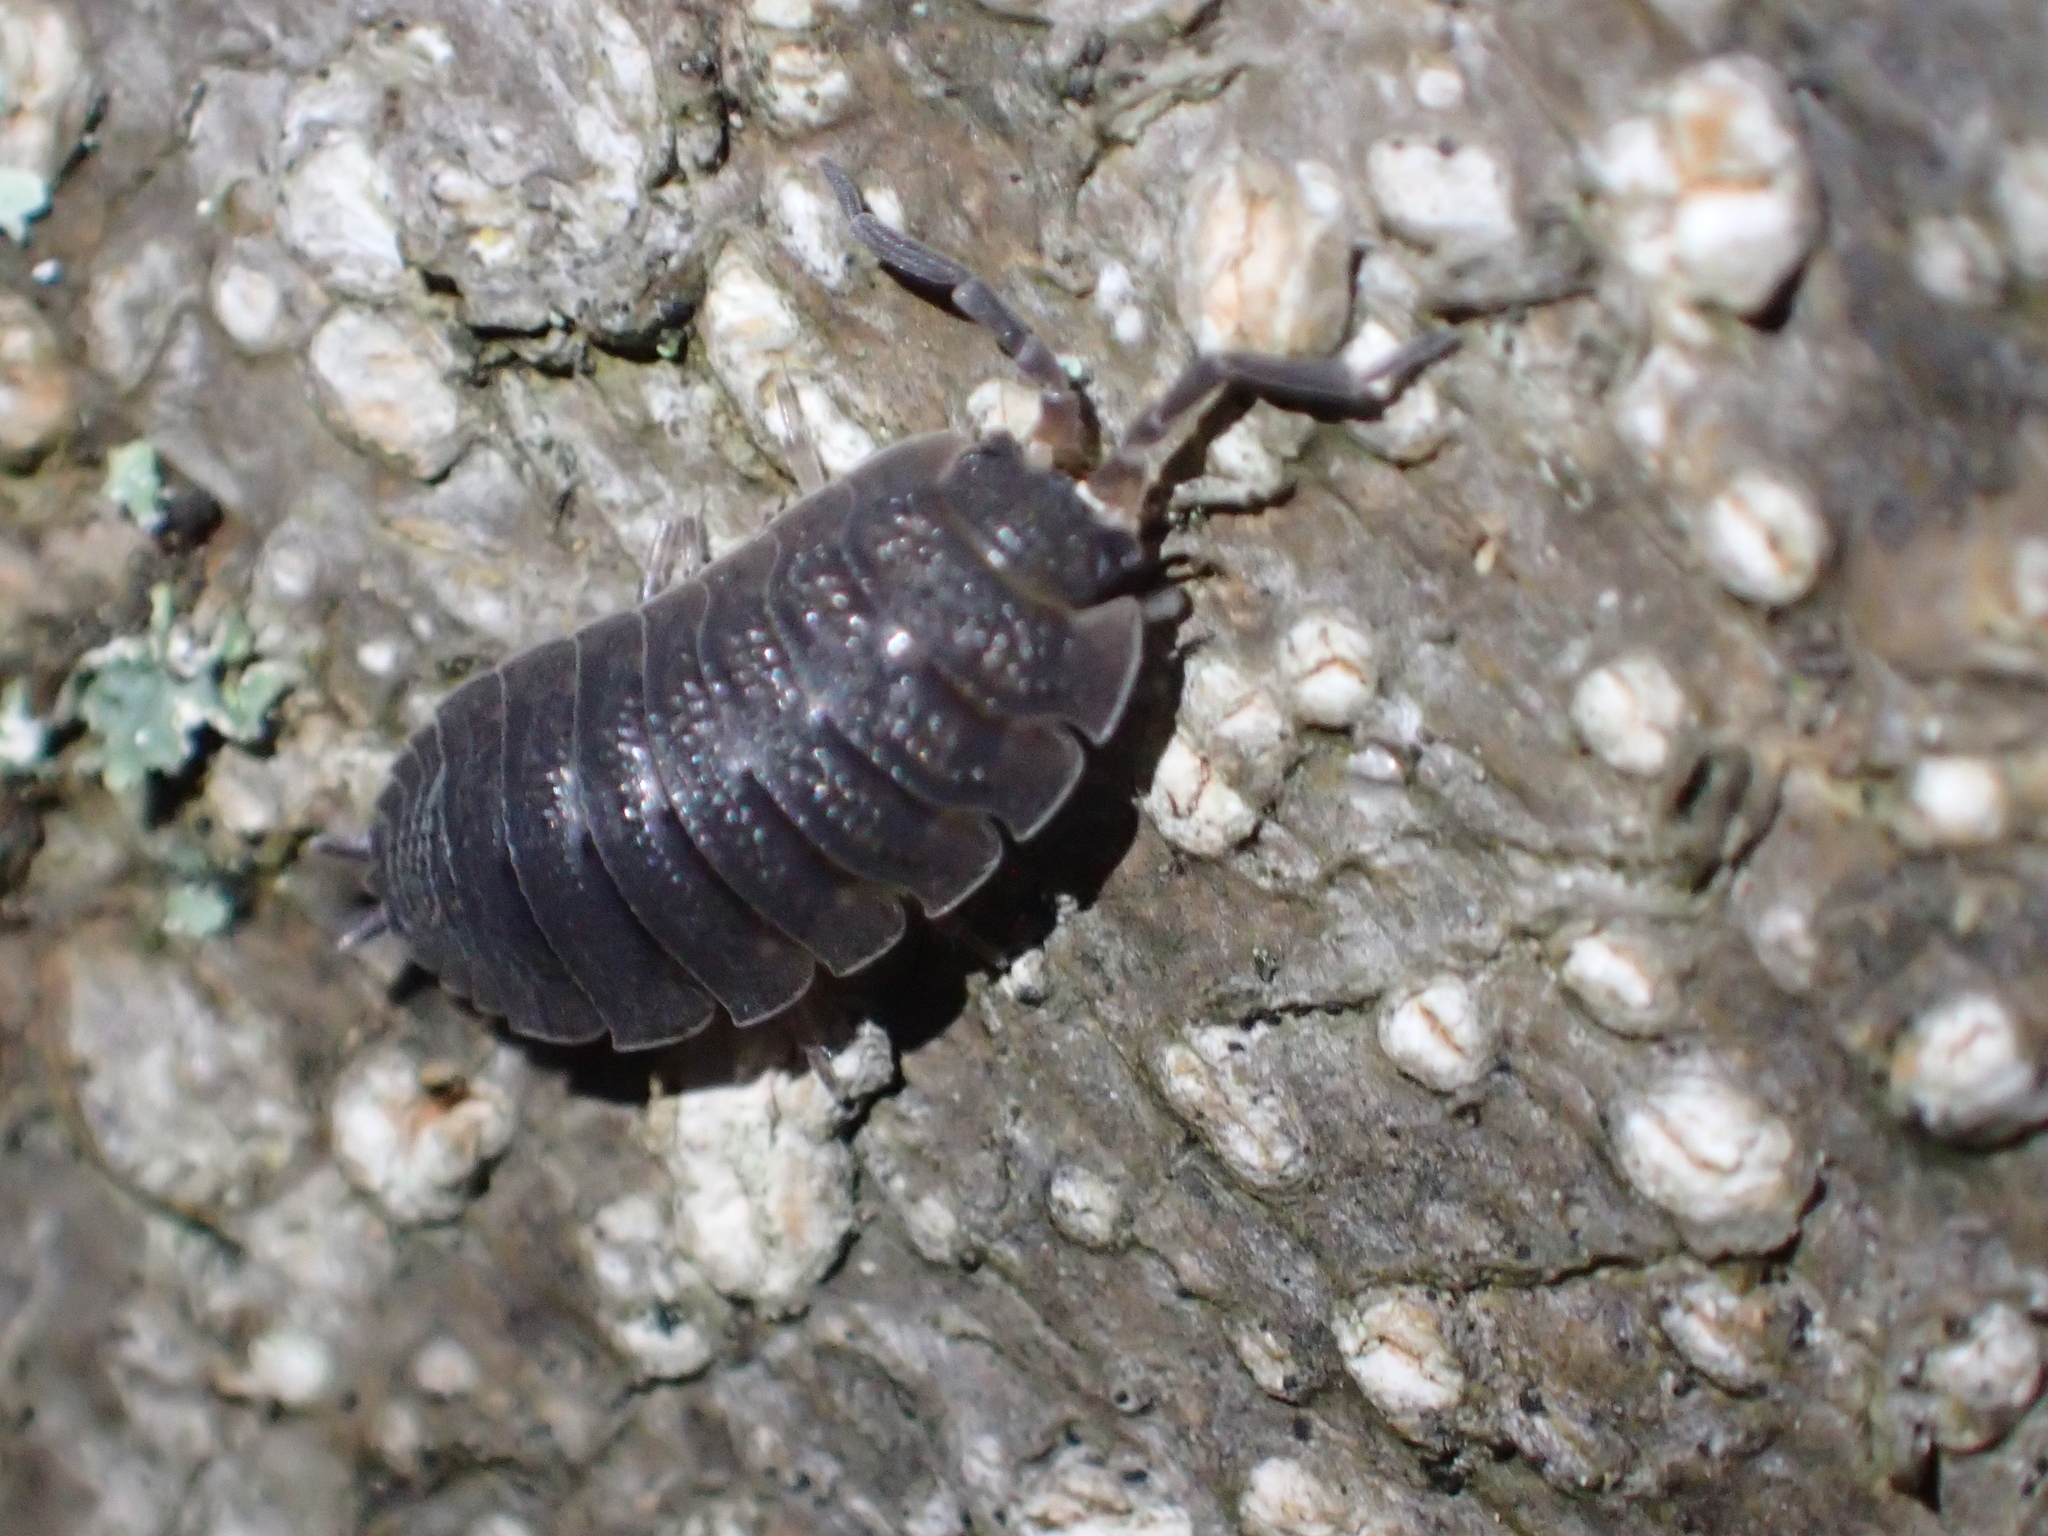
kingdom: Animalia
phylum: Arthropoda
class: Malacostraca
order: Isopoda
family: Porcellionidae
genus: Porcellio
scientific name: Porcellio scaber
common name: Common rough woodlouse
